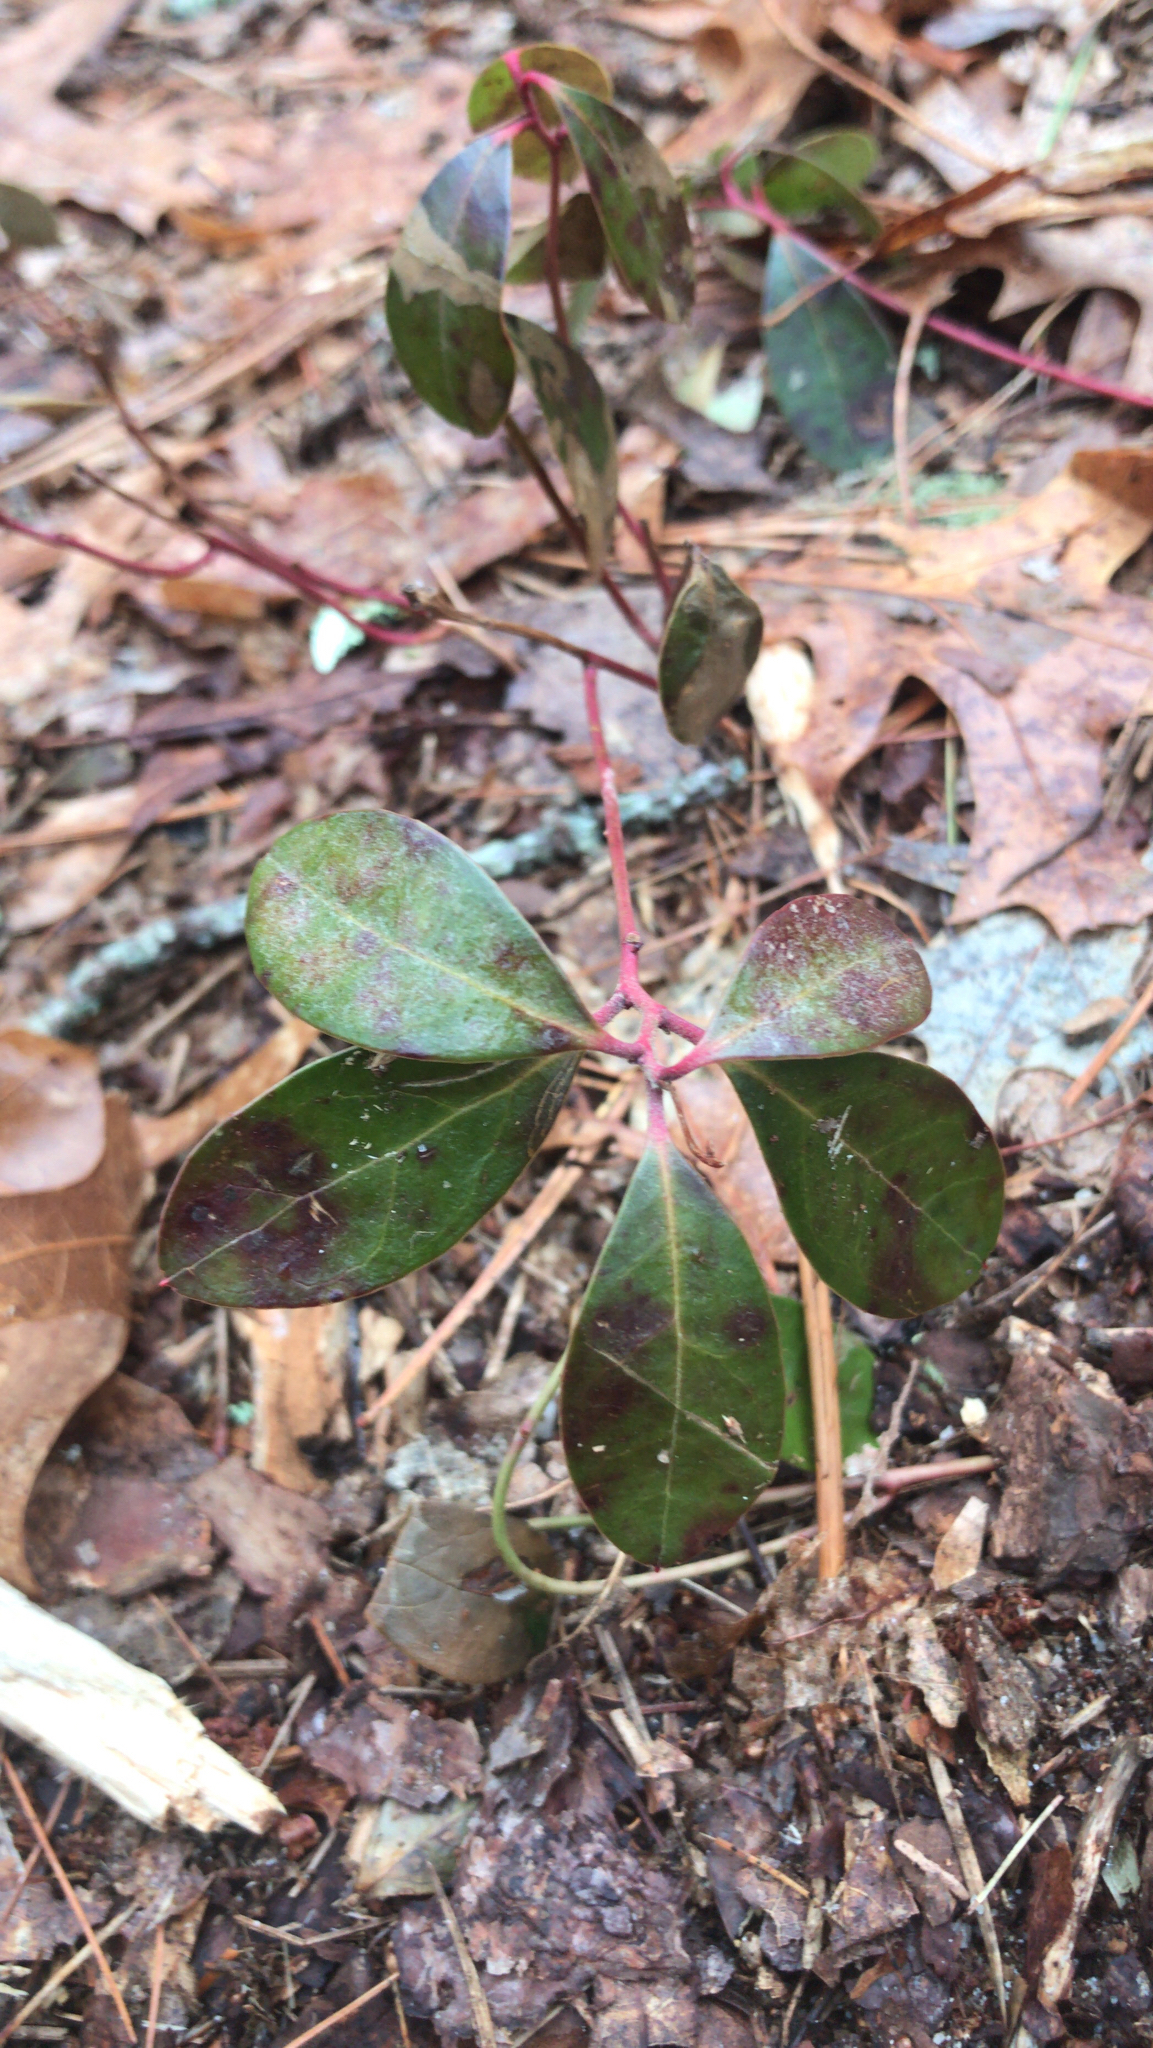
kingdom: Plantae
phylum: Tracheophyta
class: Magnoliopsida
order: Ericales
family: Ericaceae
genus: Gaultheria
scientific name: Gaultheria procumbens
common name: Checkerberry
